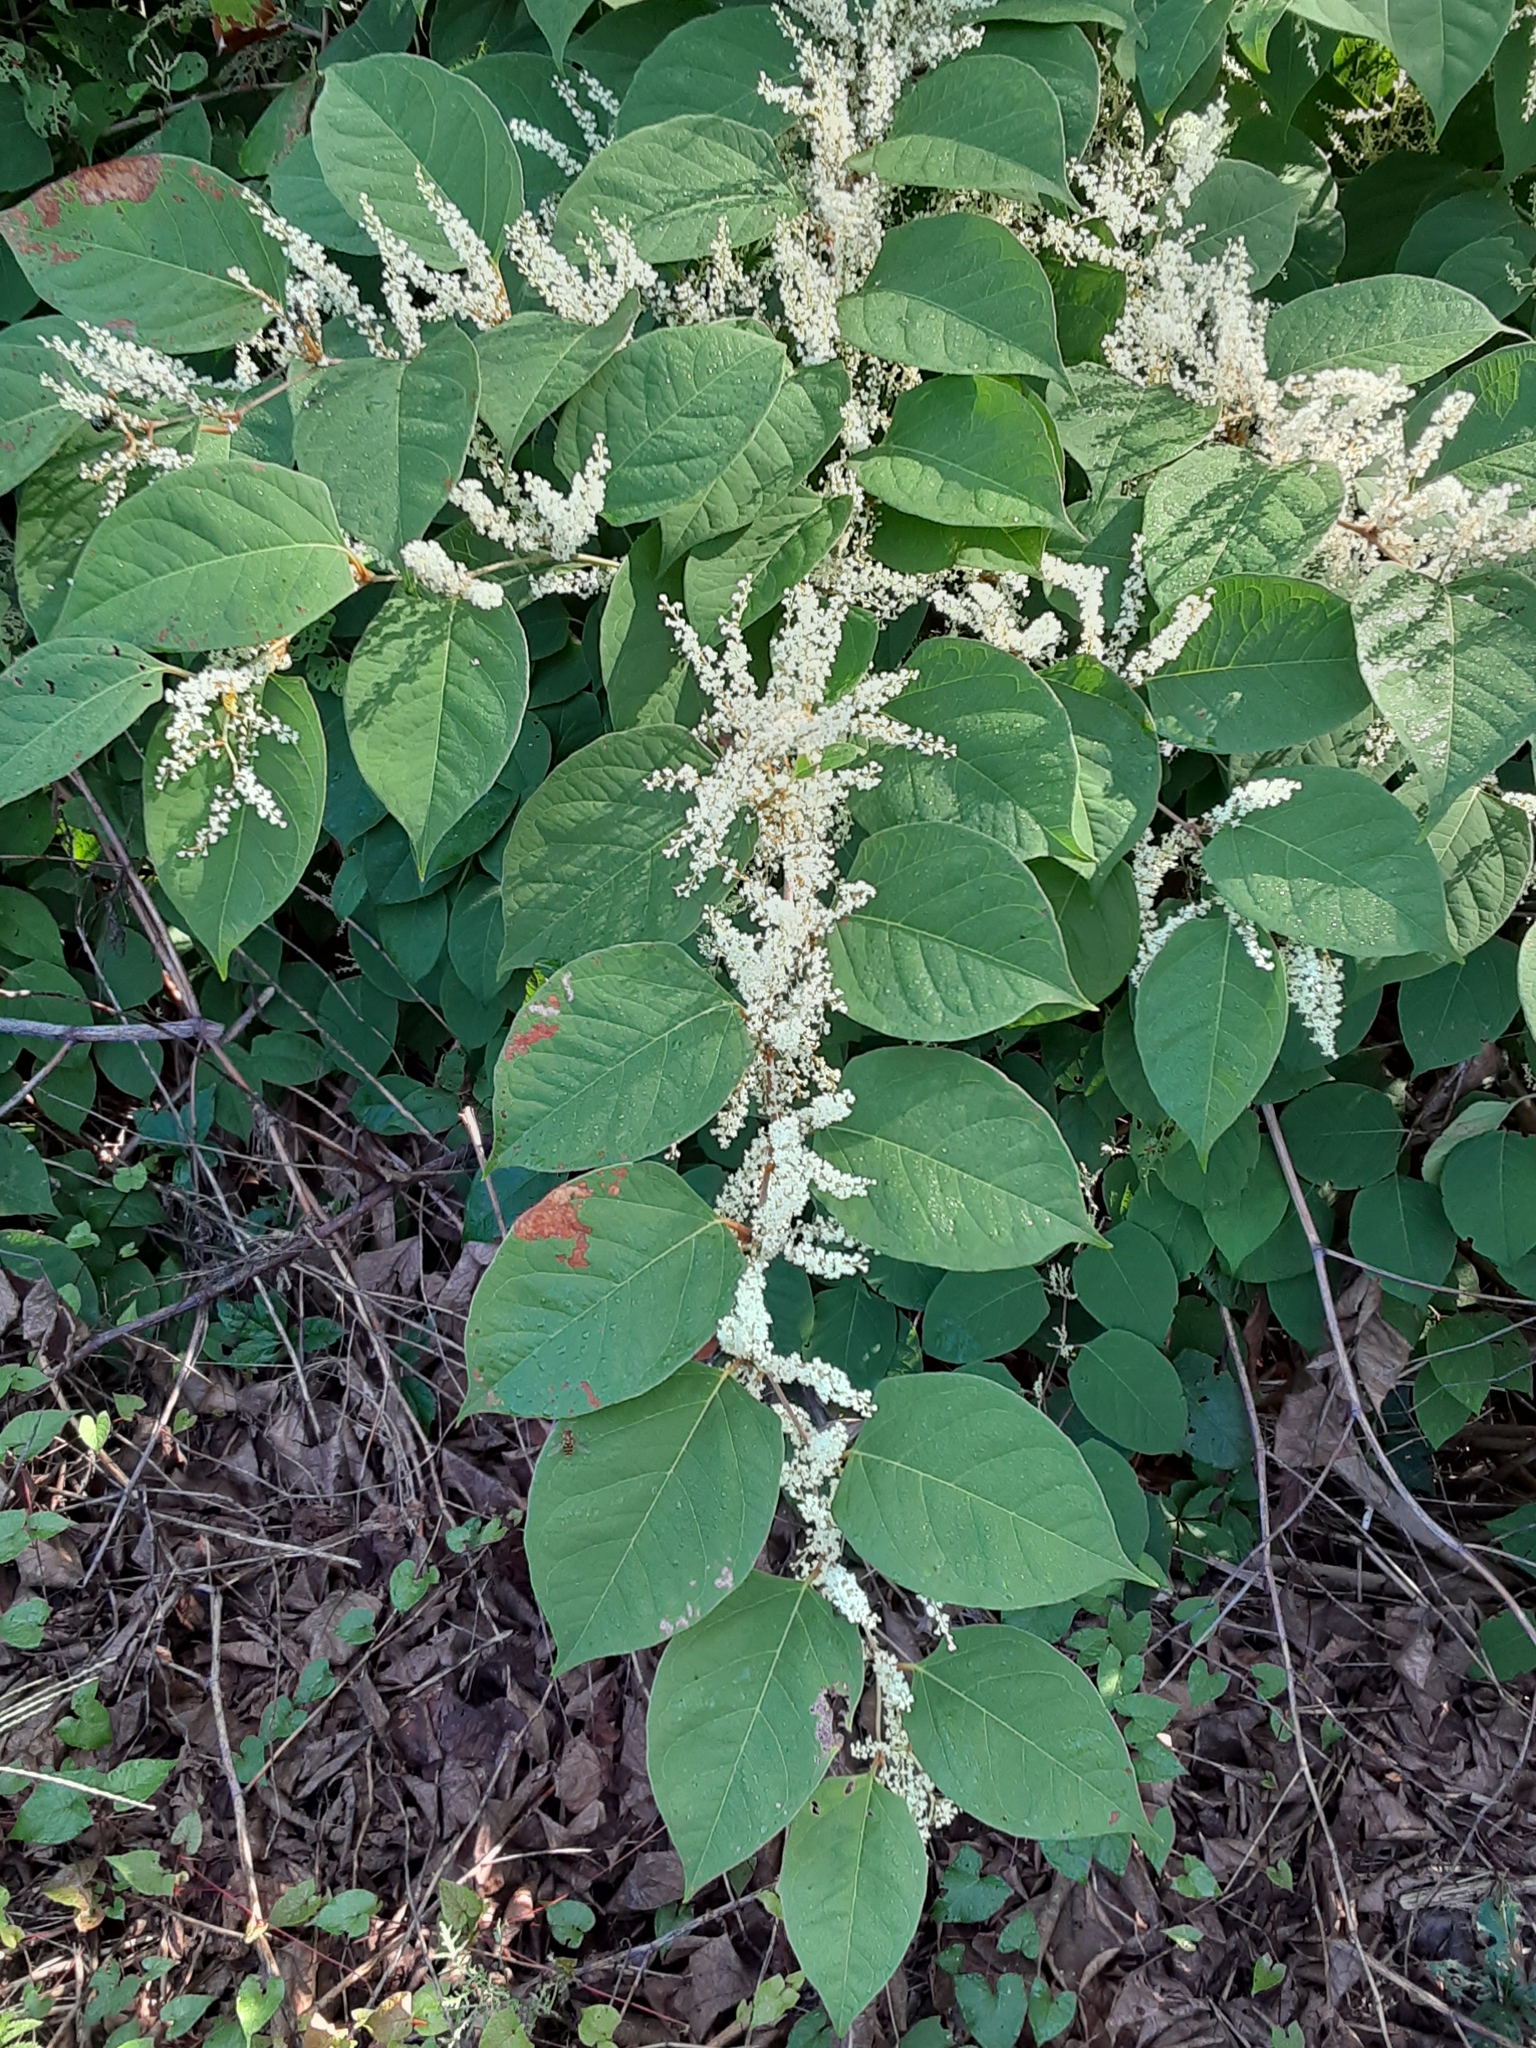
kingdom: Plantae
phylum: Tracheophyta
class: Magnoliopsida
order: Caryophyllales
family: Polygonaceae
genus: Reynoutria
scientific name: Reynoutria japonica
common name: Japanese knotweed
